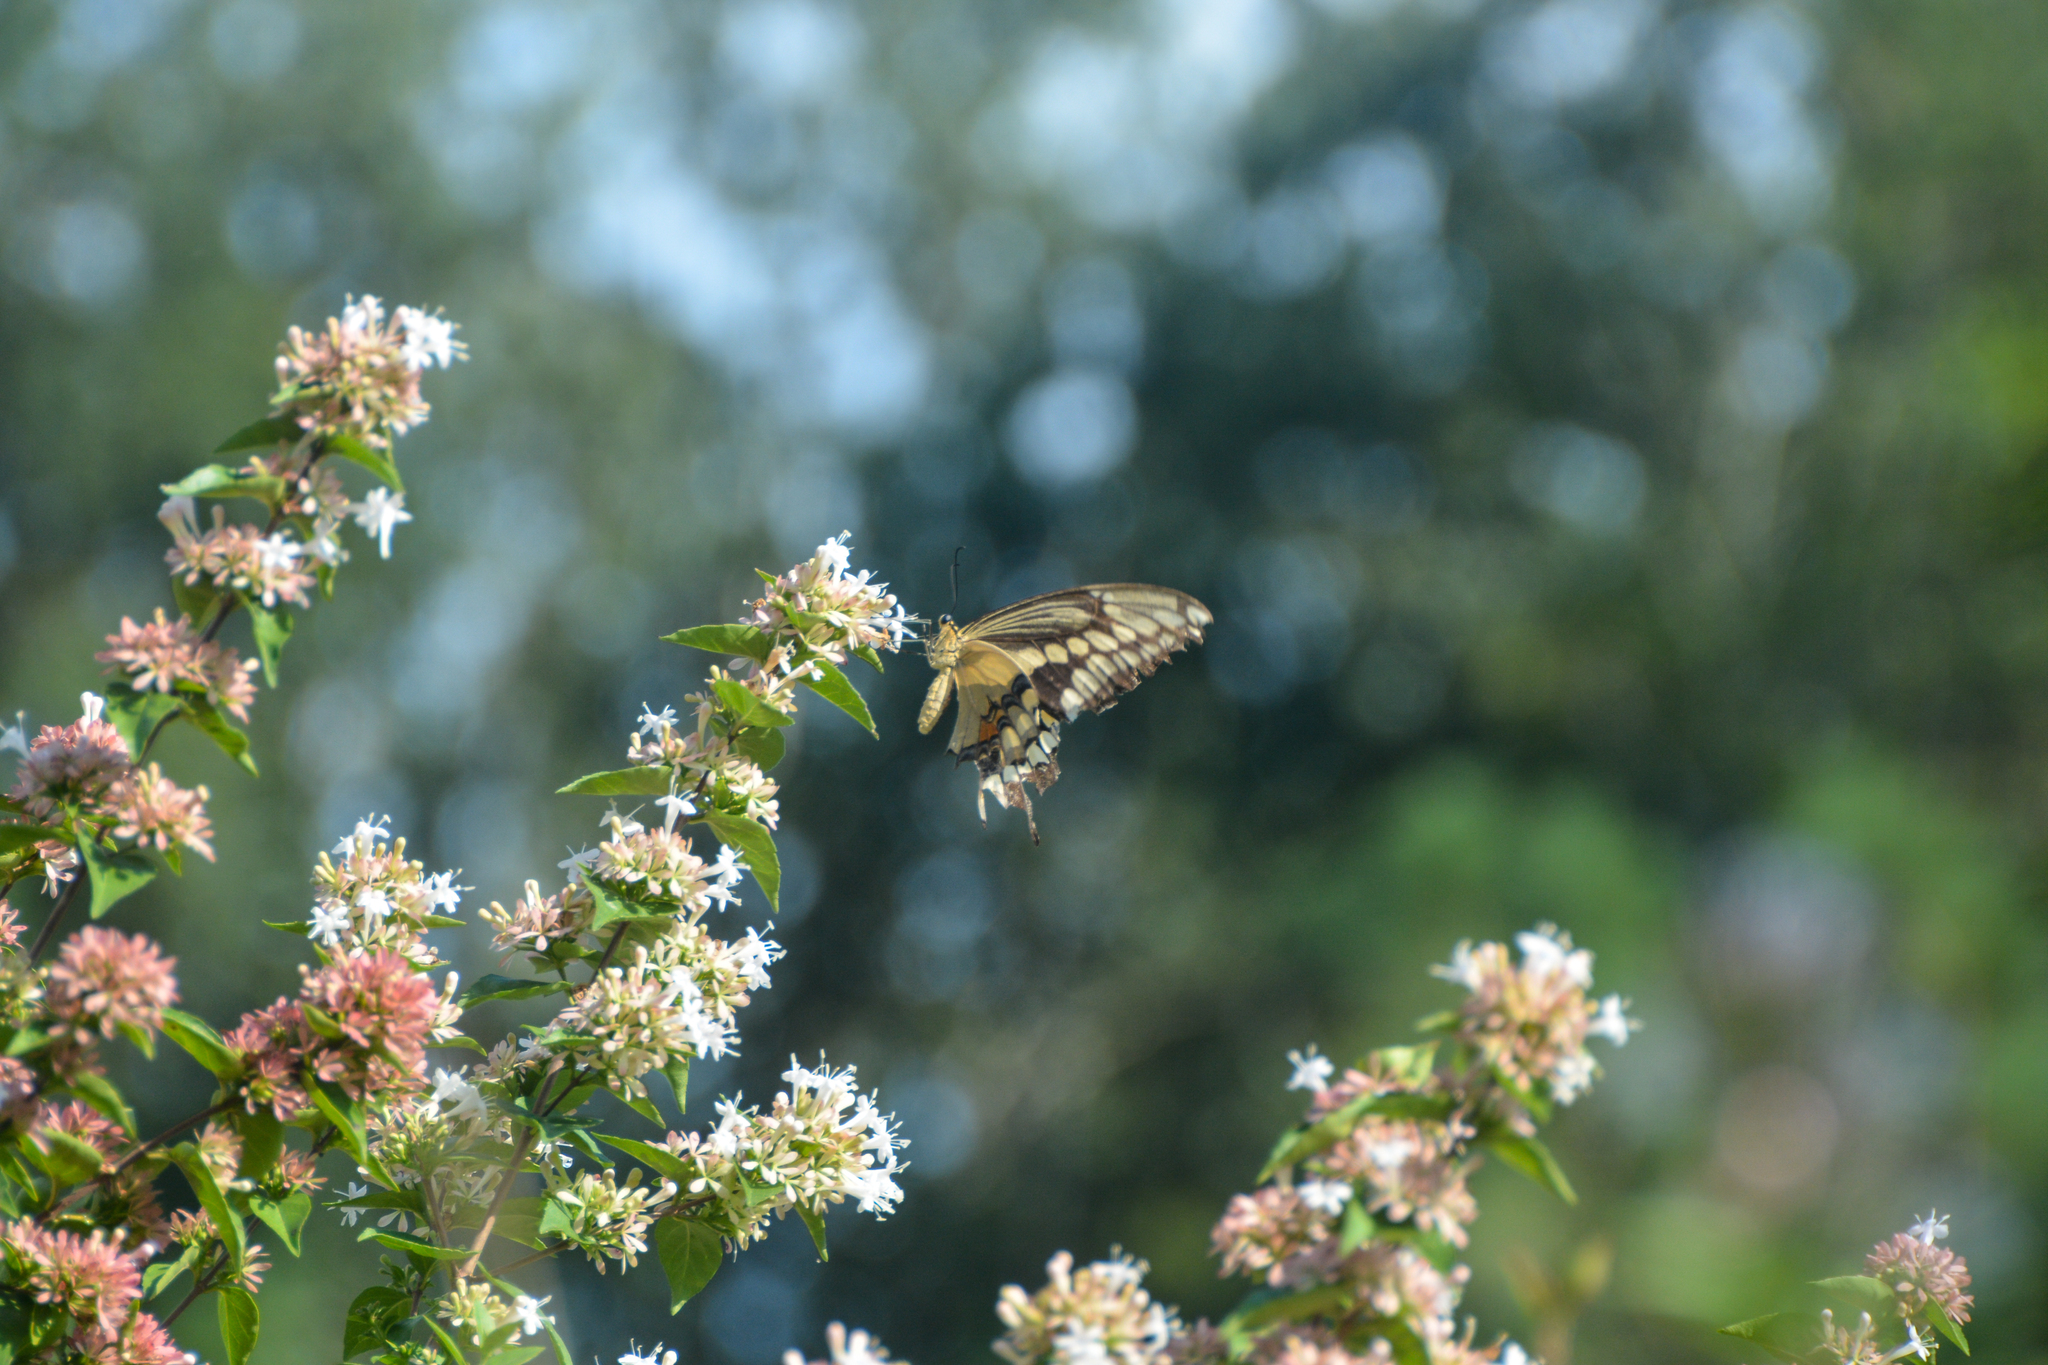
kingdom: Animalia
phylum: Arthropoda
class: Insecta
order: Lepidoptera
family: Papilionidae
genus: Papilio
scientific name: Papilio cresphontes
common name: Giant swallowtail
